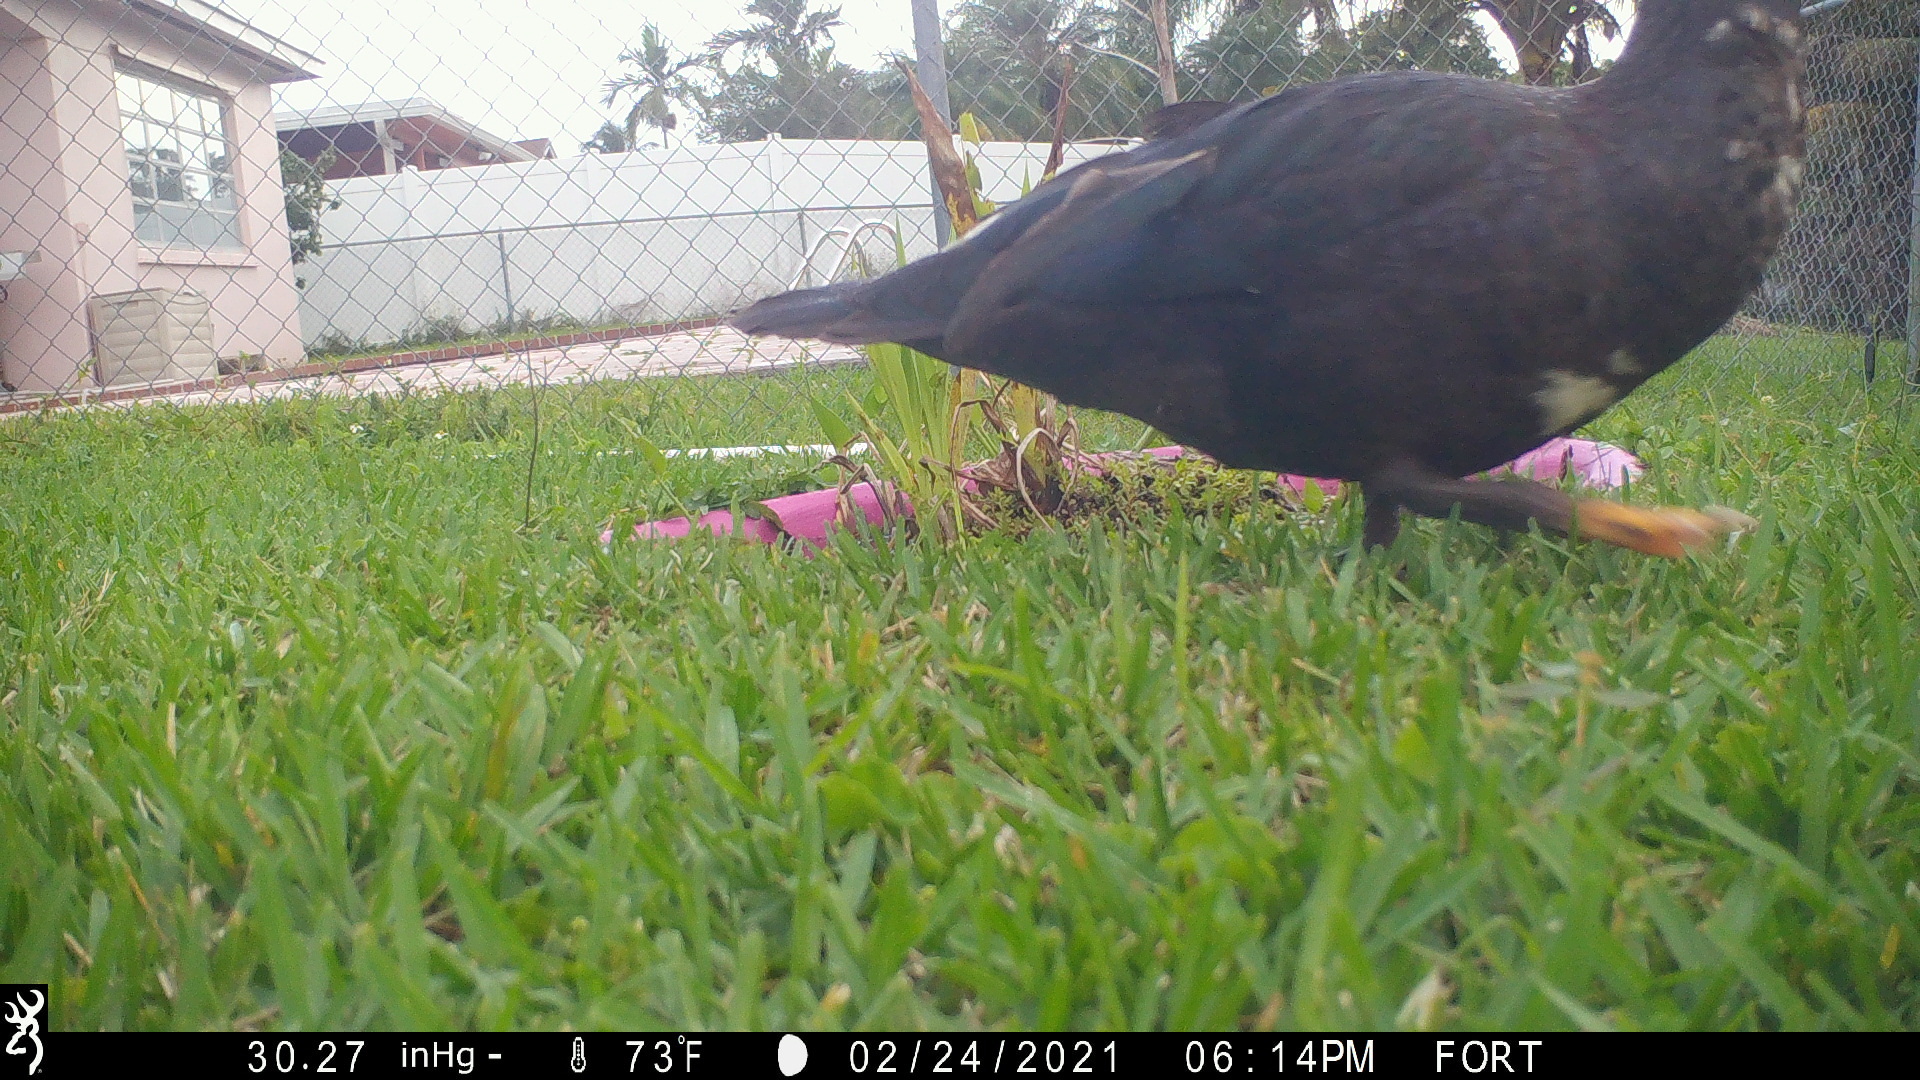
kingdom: Animalia
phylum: Chordata
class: Aves
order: Anseriformes
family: Anatidae
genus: Cairina
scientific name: Cairina moschata
